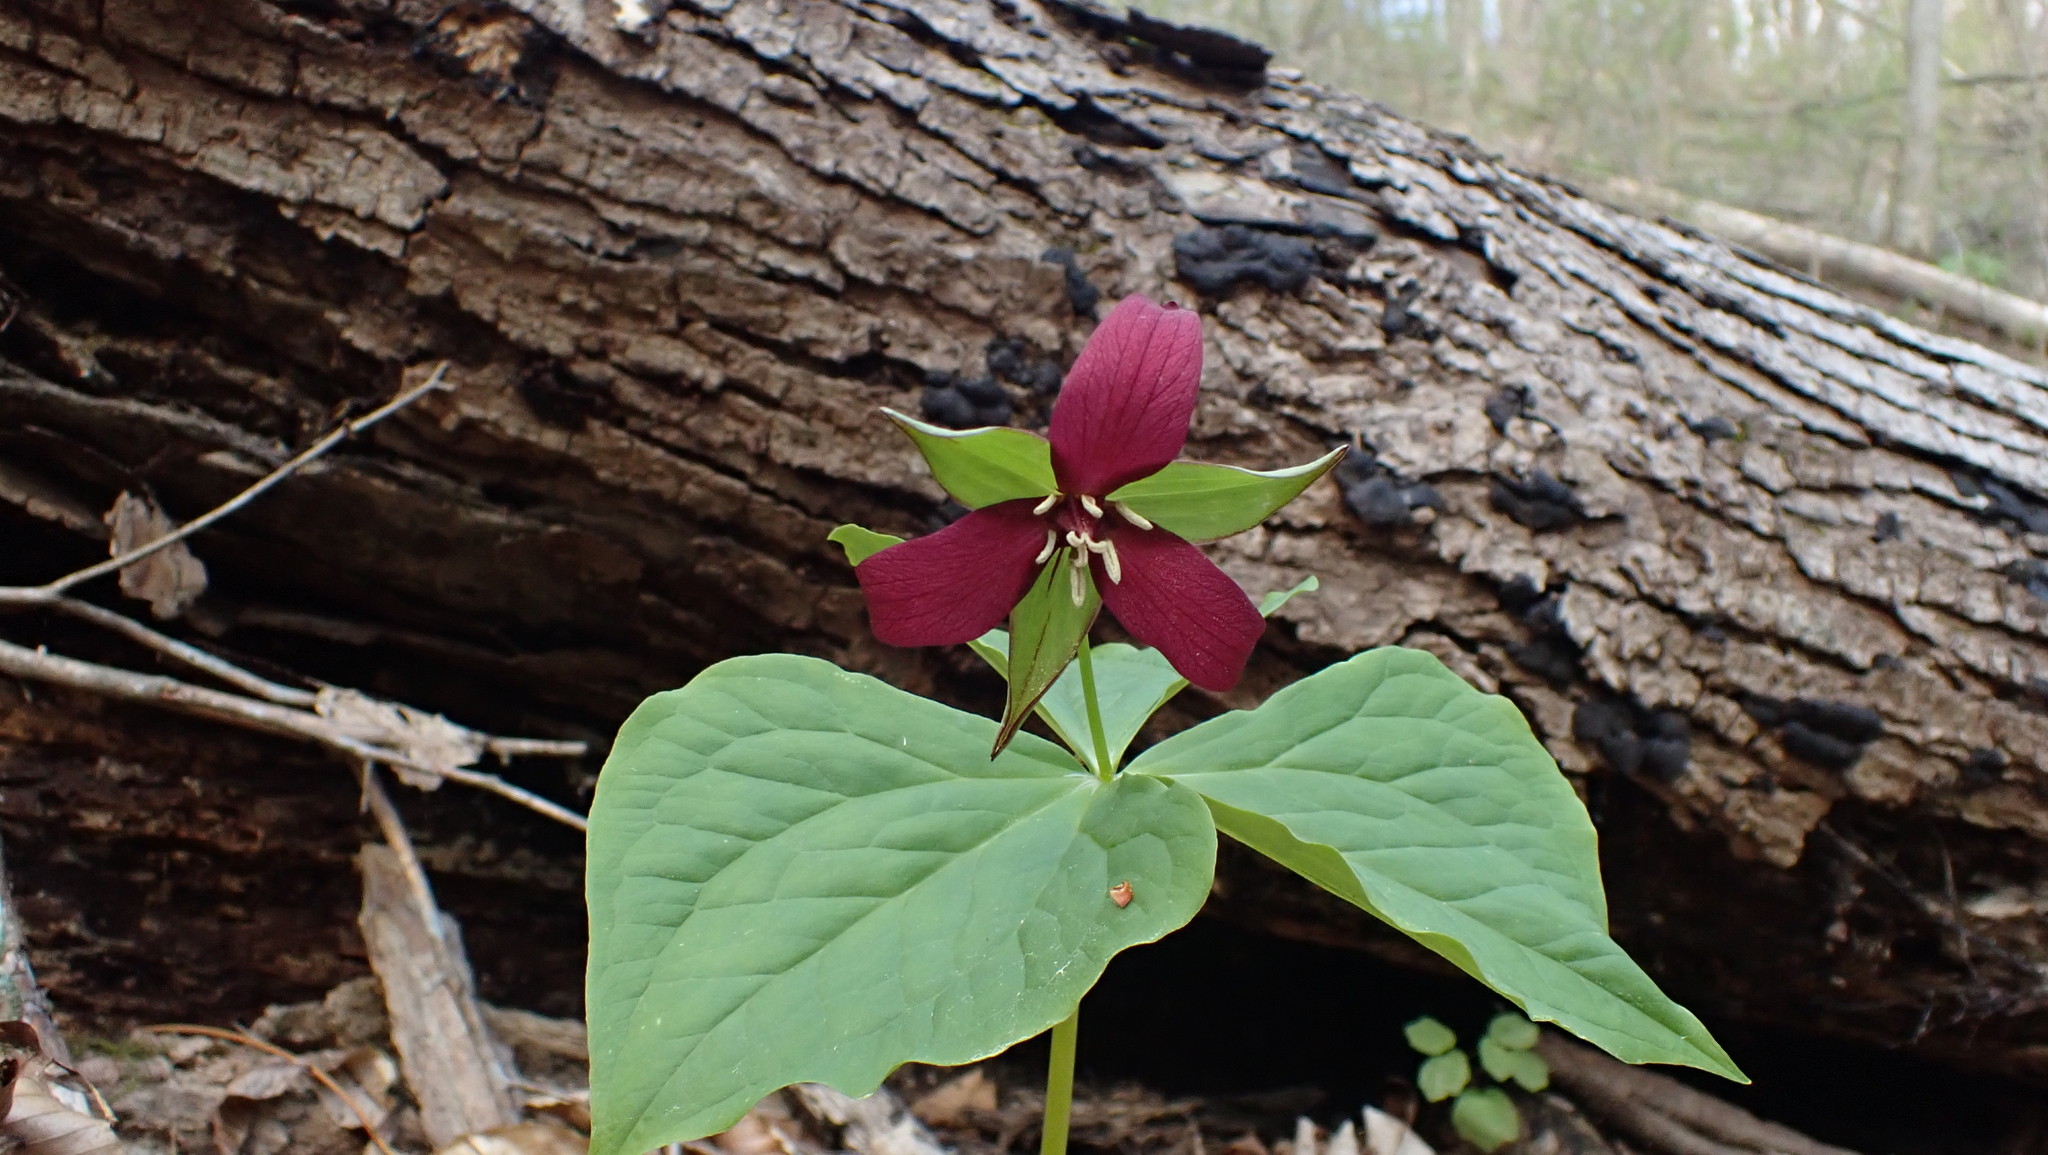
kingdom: Plantae
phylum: Tracheophyta
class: Liliopsida
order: Liliales
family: Melanthiaceae
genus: Trillium
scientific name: Trillium erectum
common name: Purple trillium
